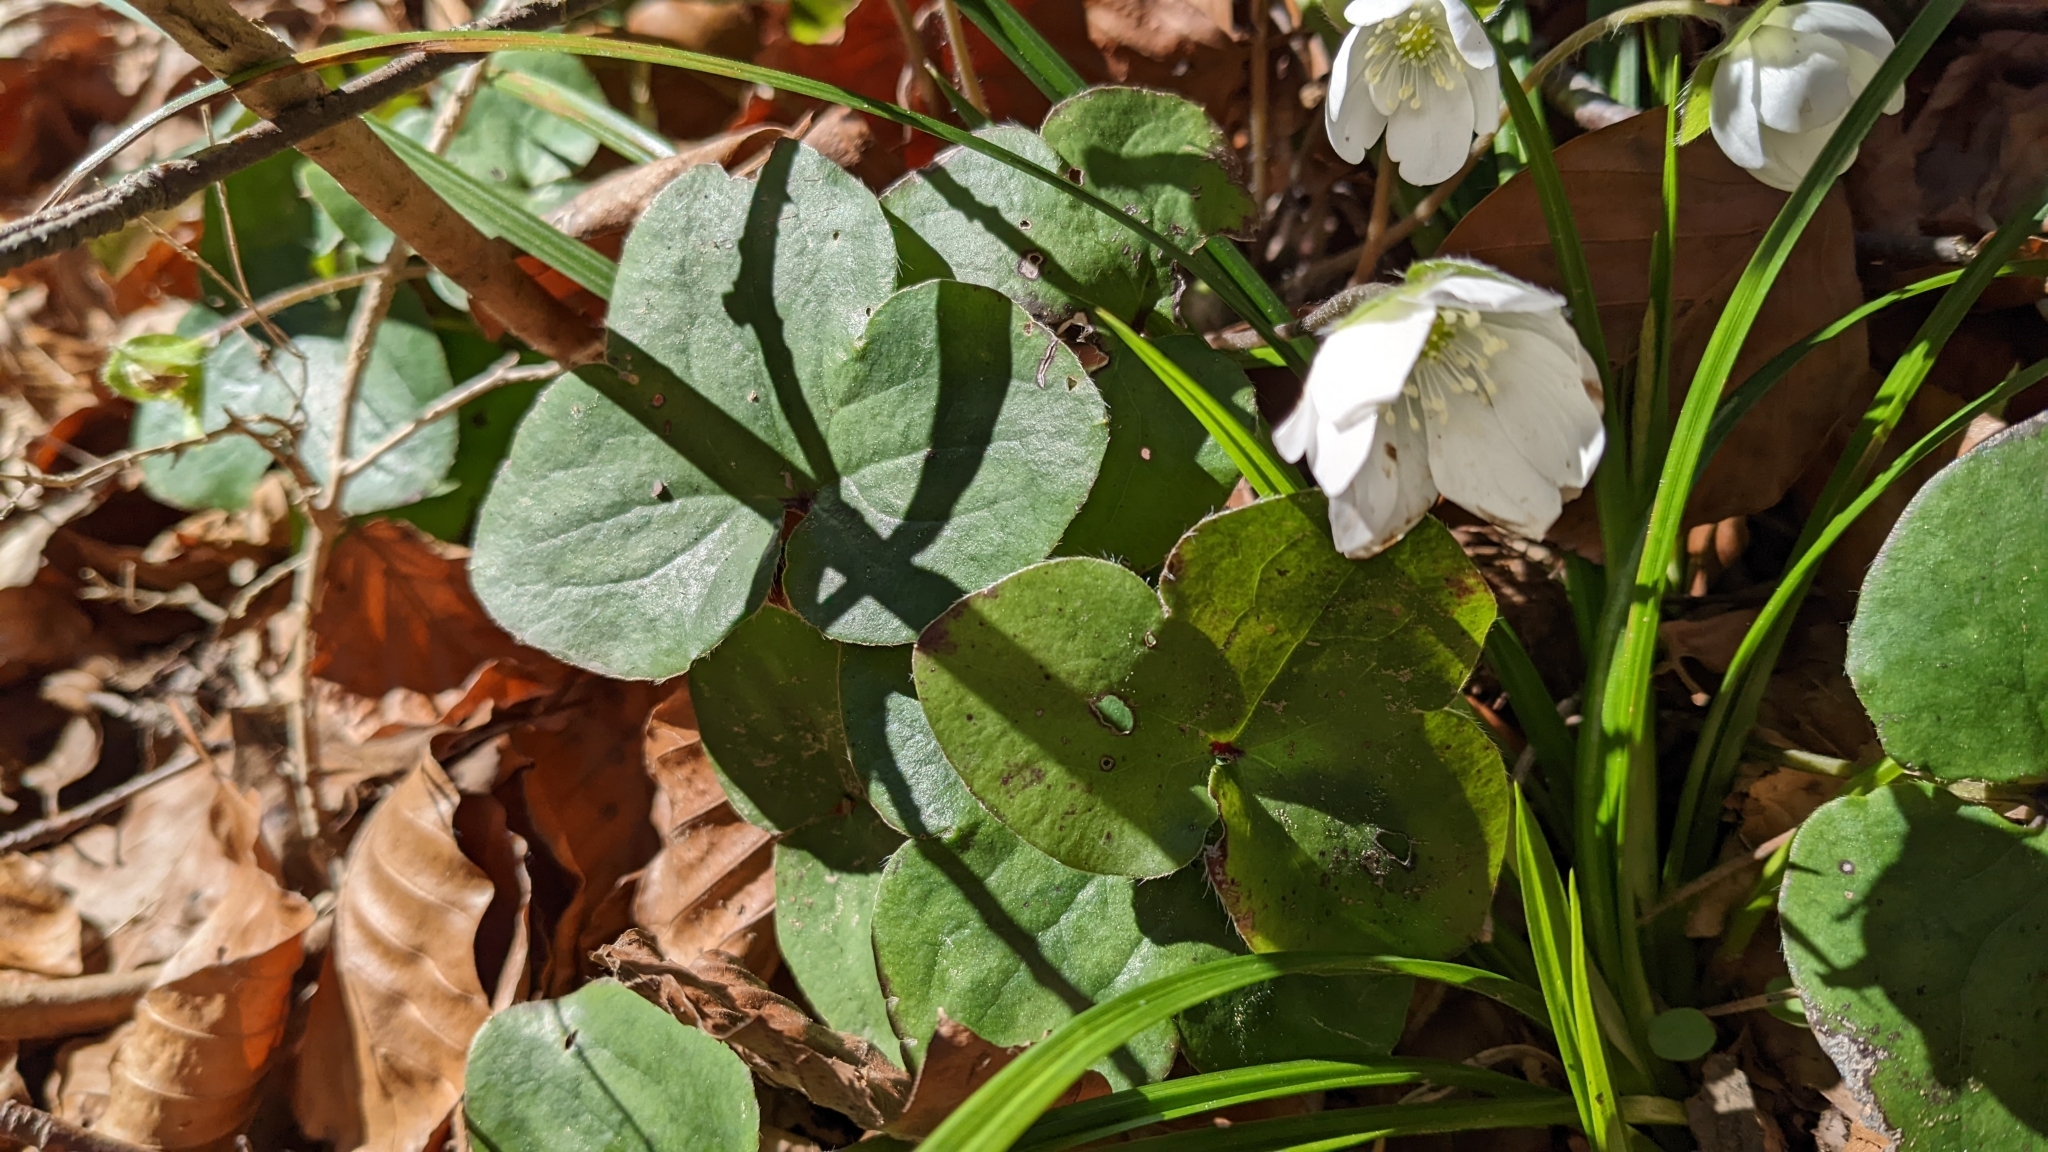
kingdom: Plantae
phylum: Tracheophyta
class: Magnoliopsida
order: Ranunculales
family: Ranunculaceae
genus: Hepatica
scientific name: Hepatica nobilis
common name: Liverleaf
